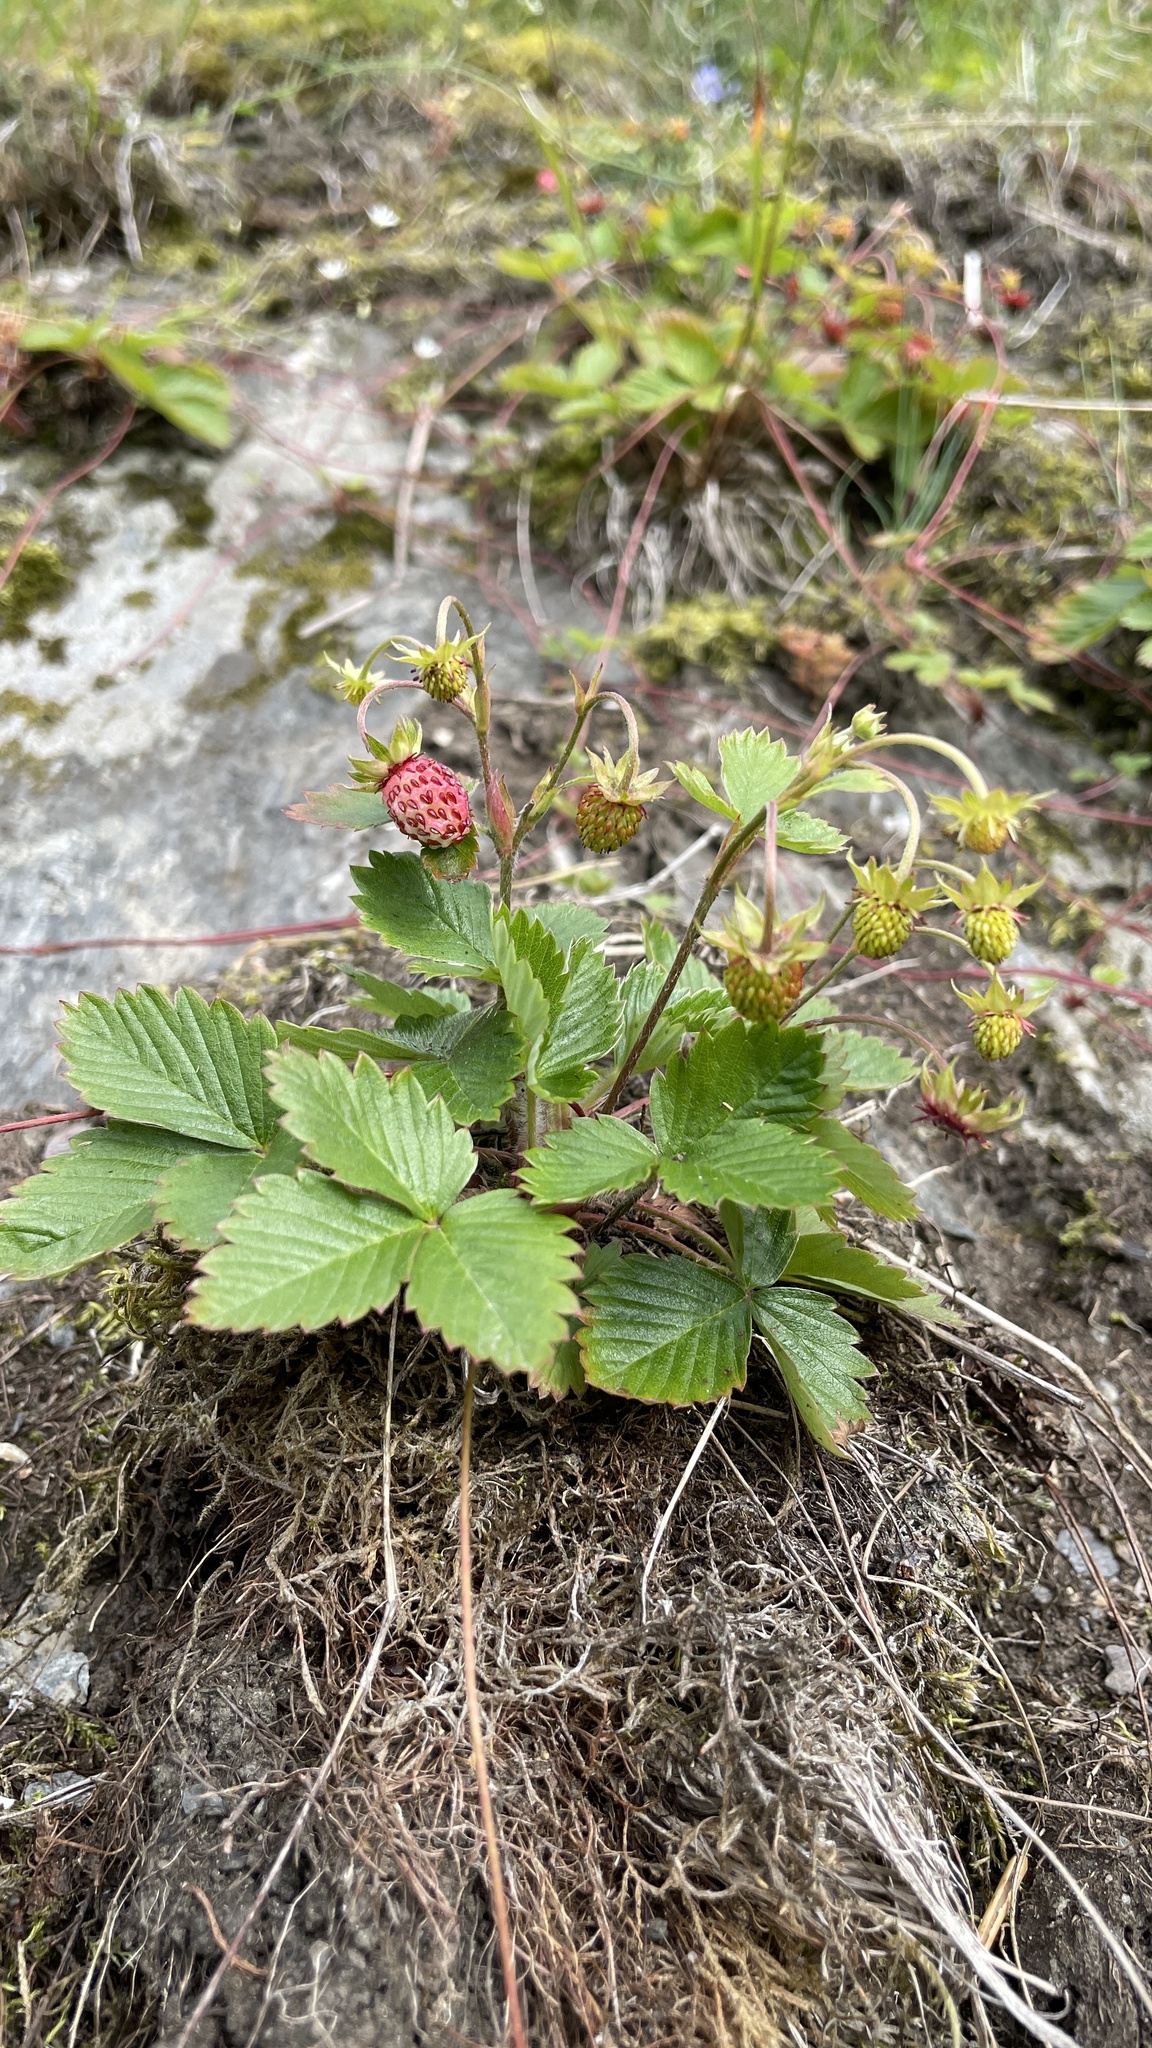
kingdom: Plantae
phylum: Tracheophyta
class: Magnoliopsida
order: Rosales
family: Rosaceae
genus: Fragaria
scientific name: Fragaria vesca
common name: Wild strawberry
